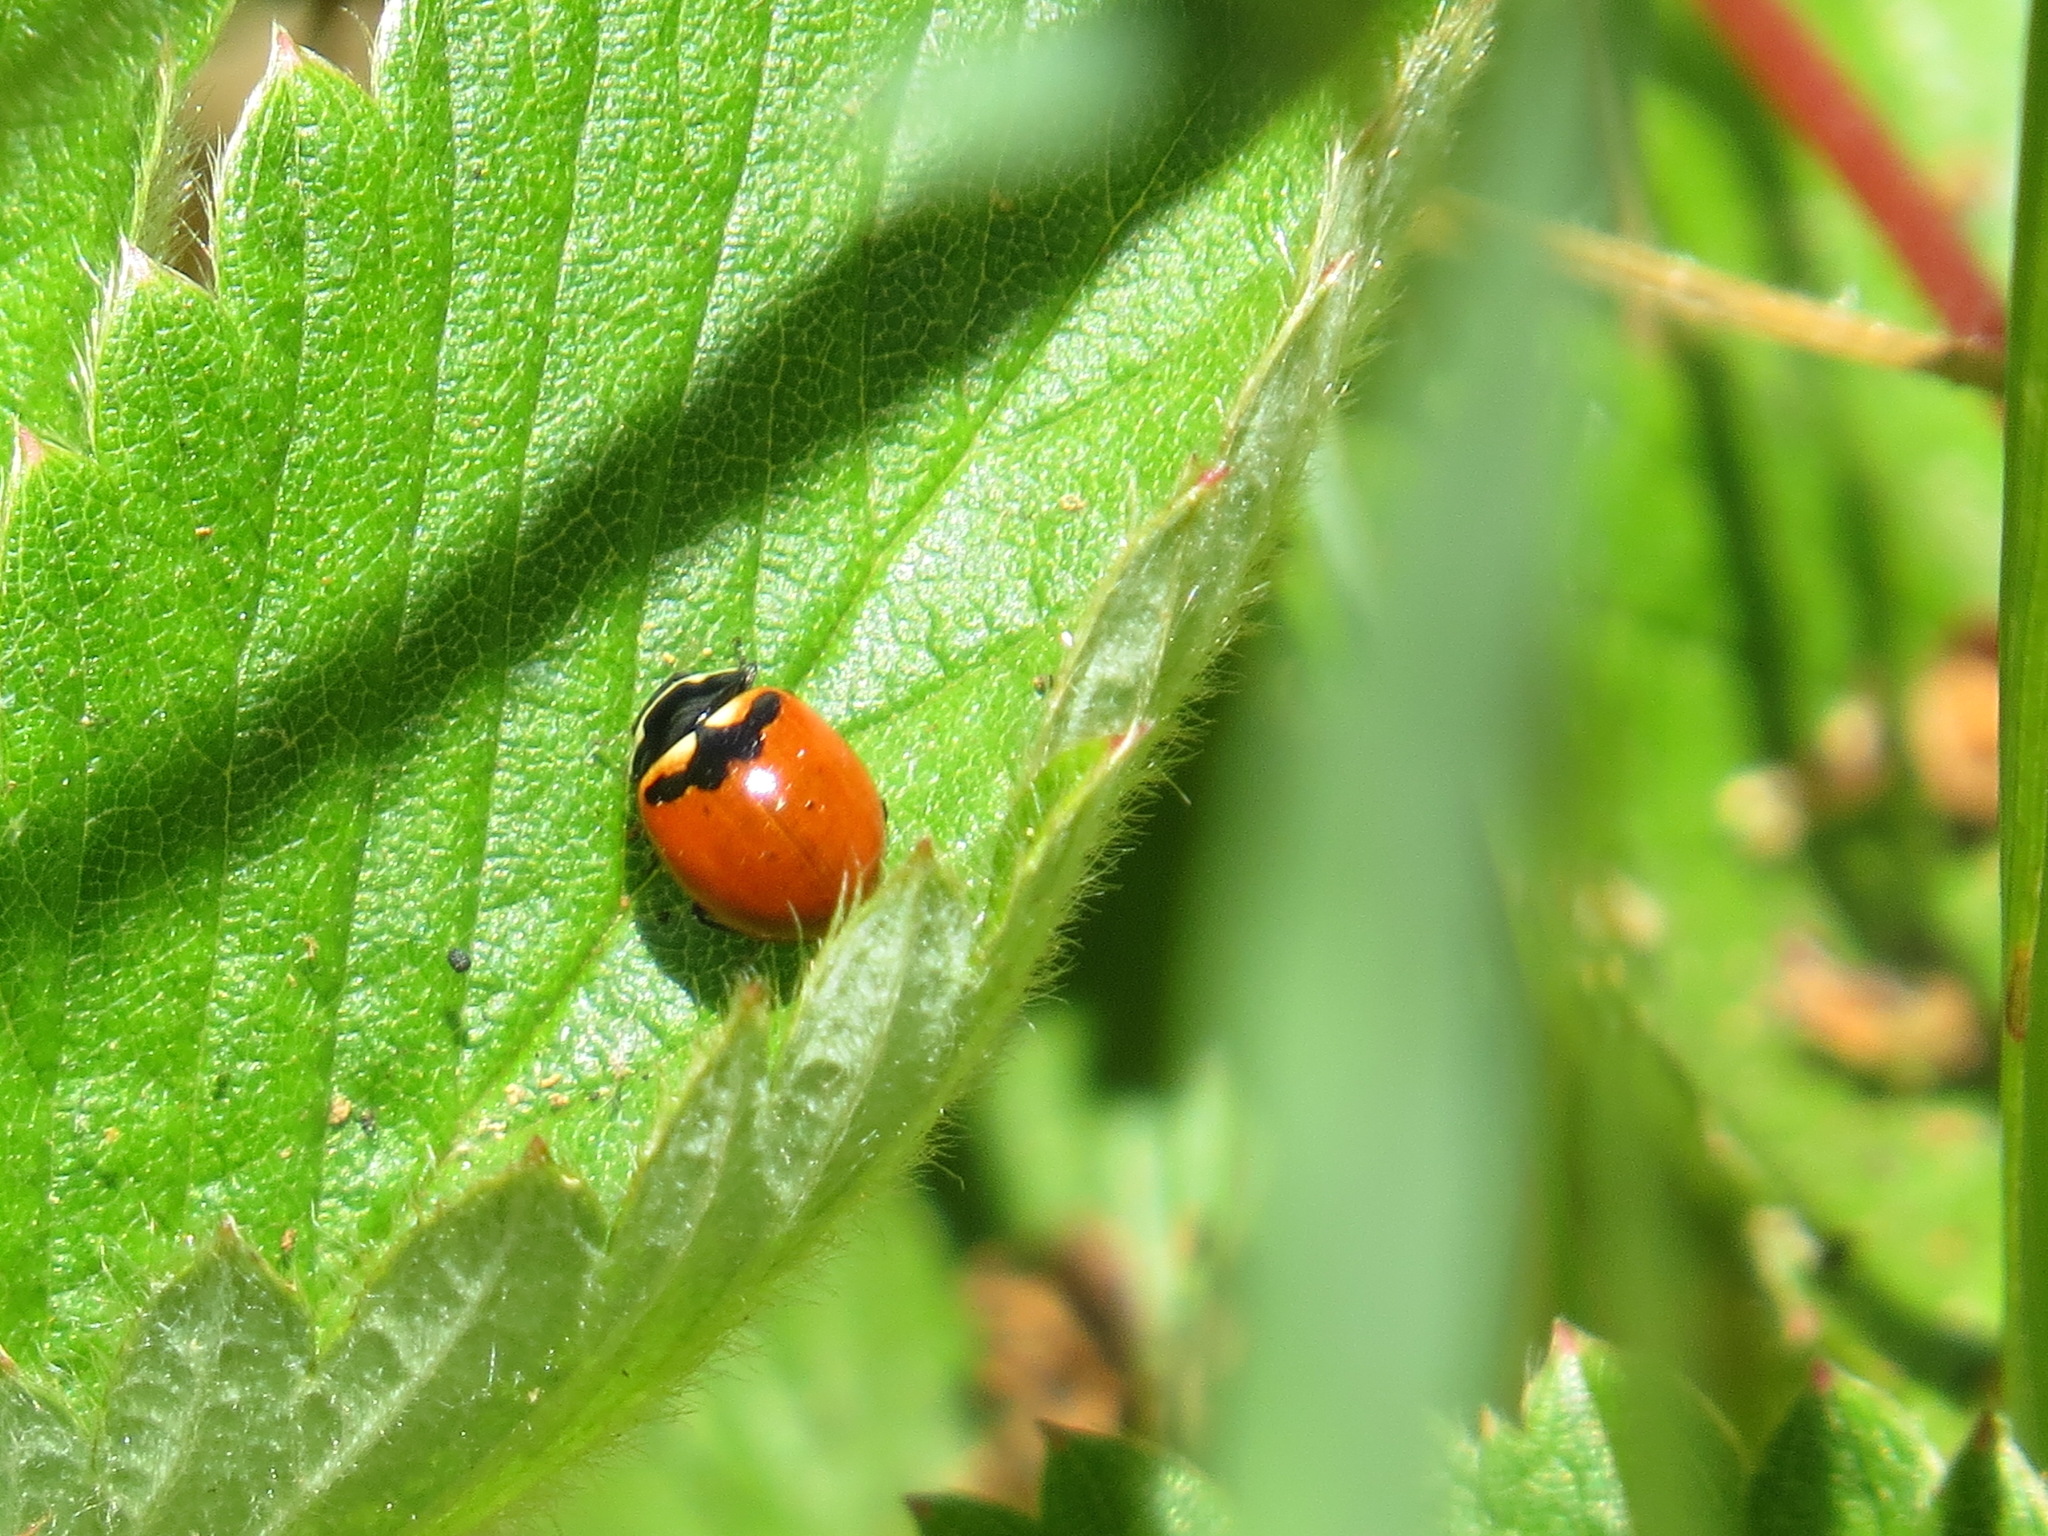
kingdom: Animalia
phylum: Arthropoda
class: Insecta
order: Coleoptera
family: Coccinellidae
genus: Coccinella
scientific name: Coccinella trifasciata
